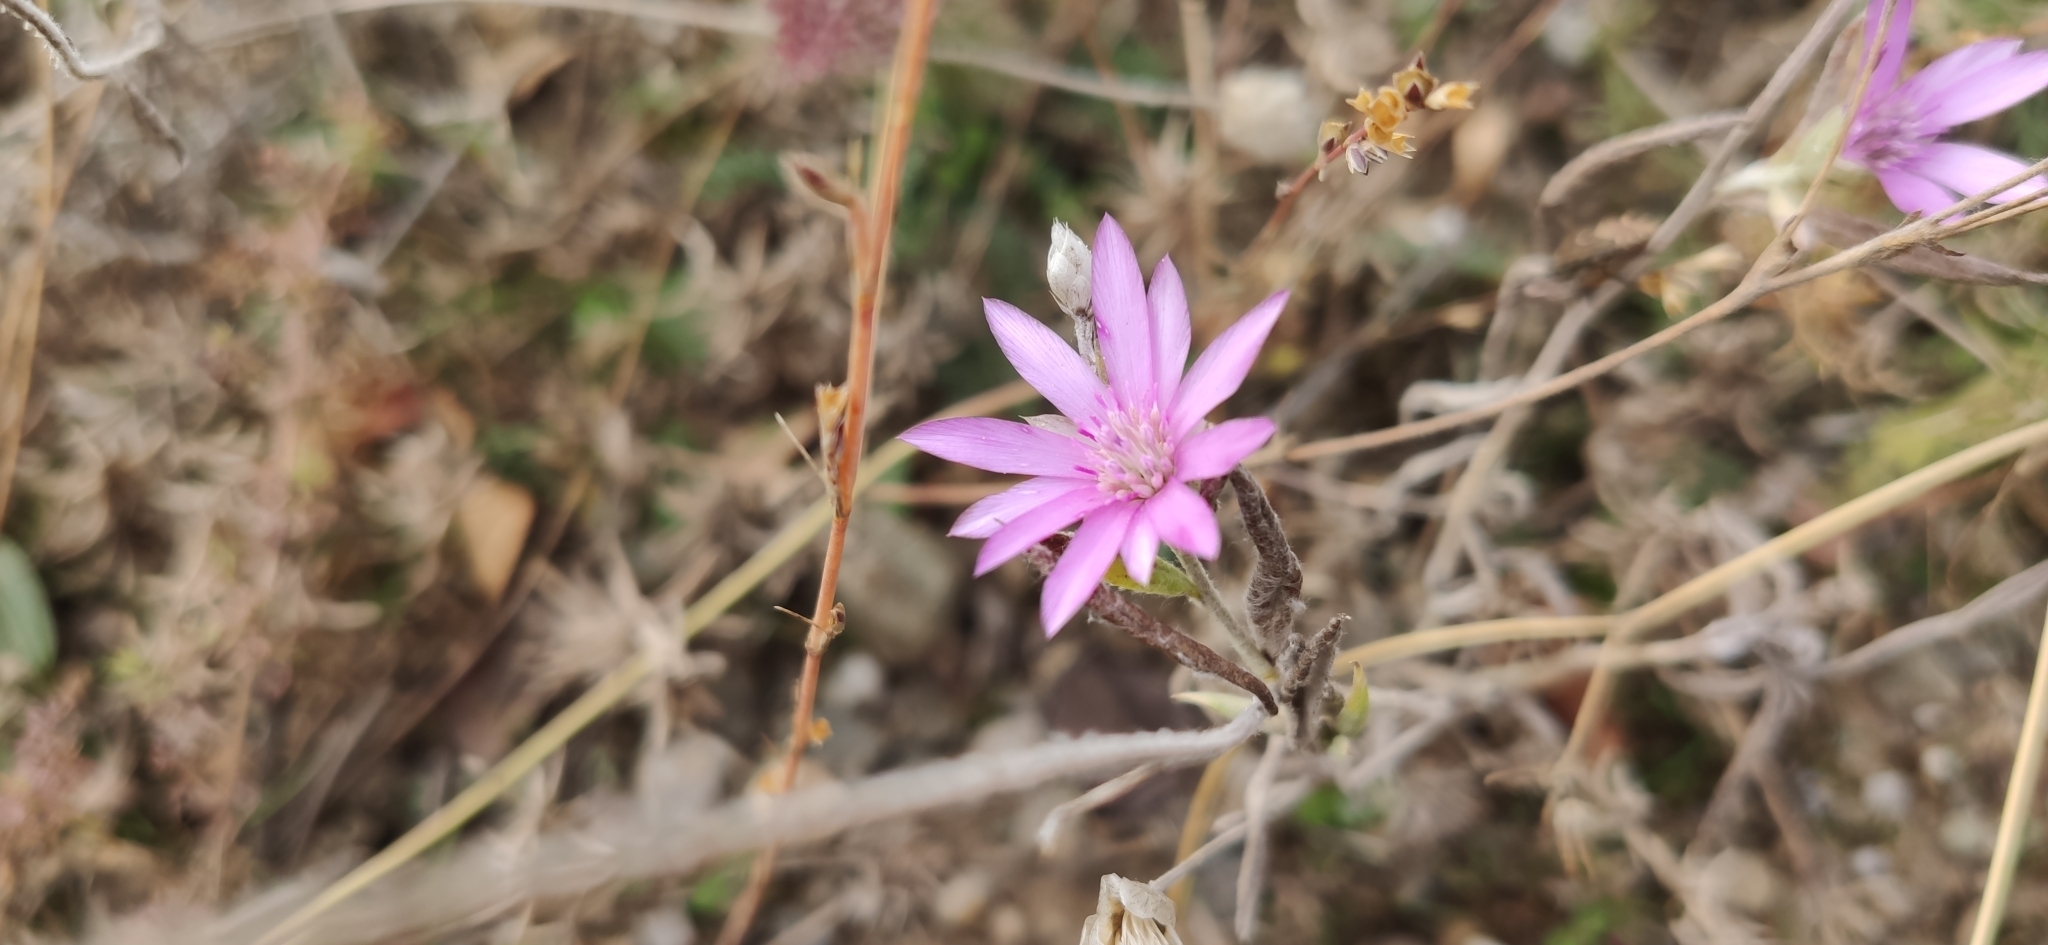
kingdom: Plantae
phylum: Tracheophyta
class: Magnoliopsida
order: Asterales
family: Asteraceae
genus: Xeranthemum
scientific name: Xeranthemum annuum
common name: Immortelle
